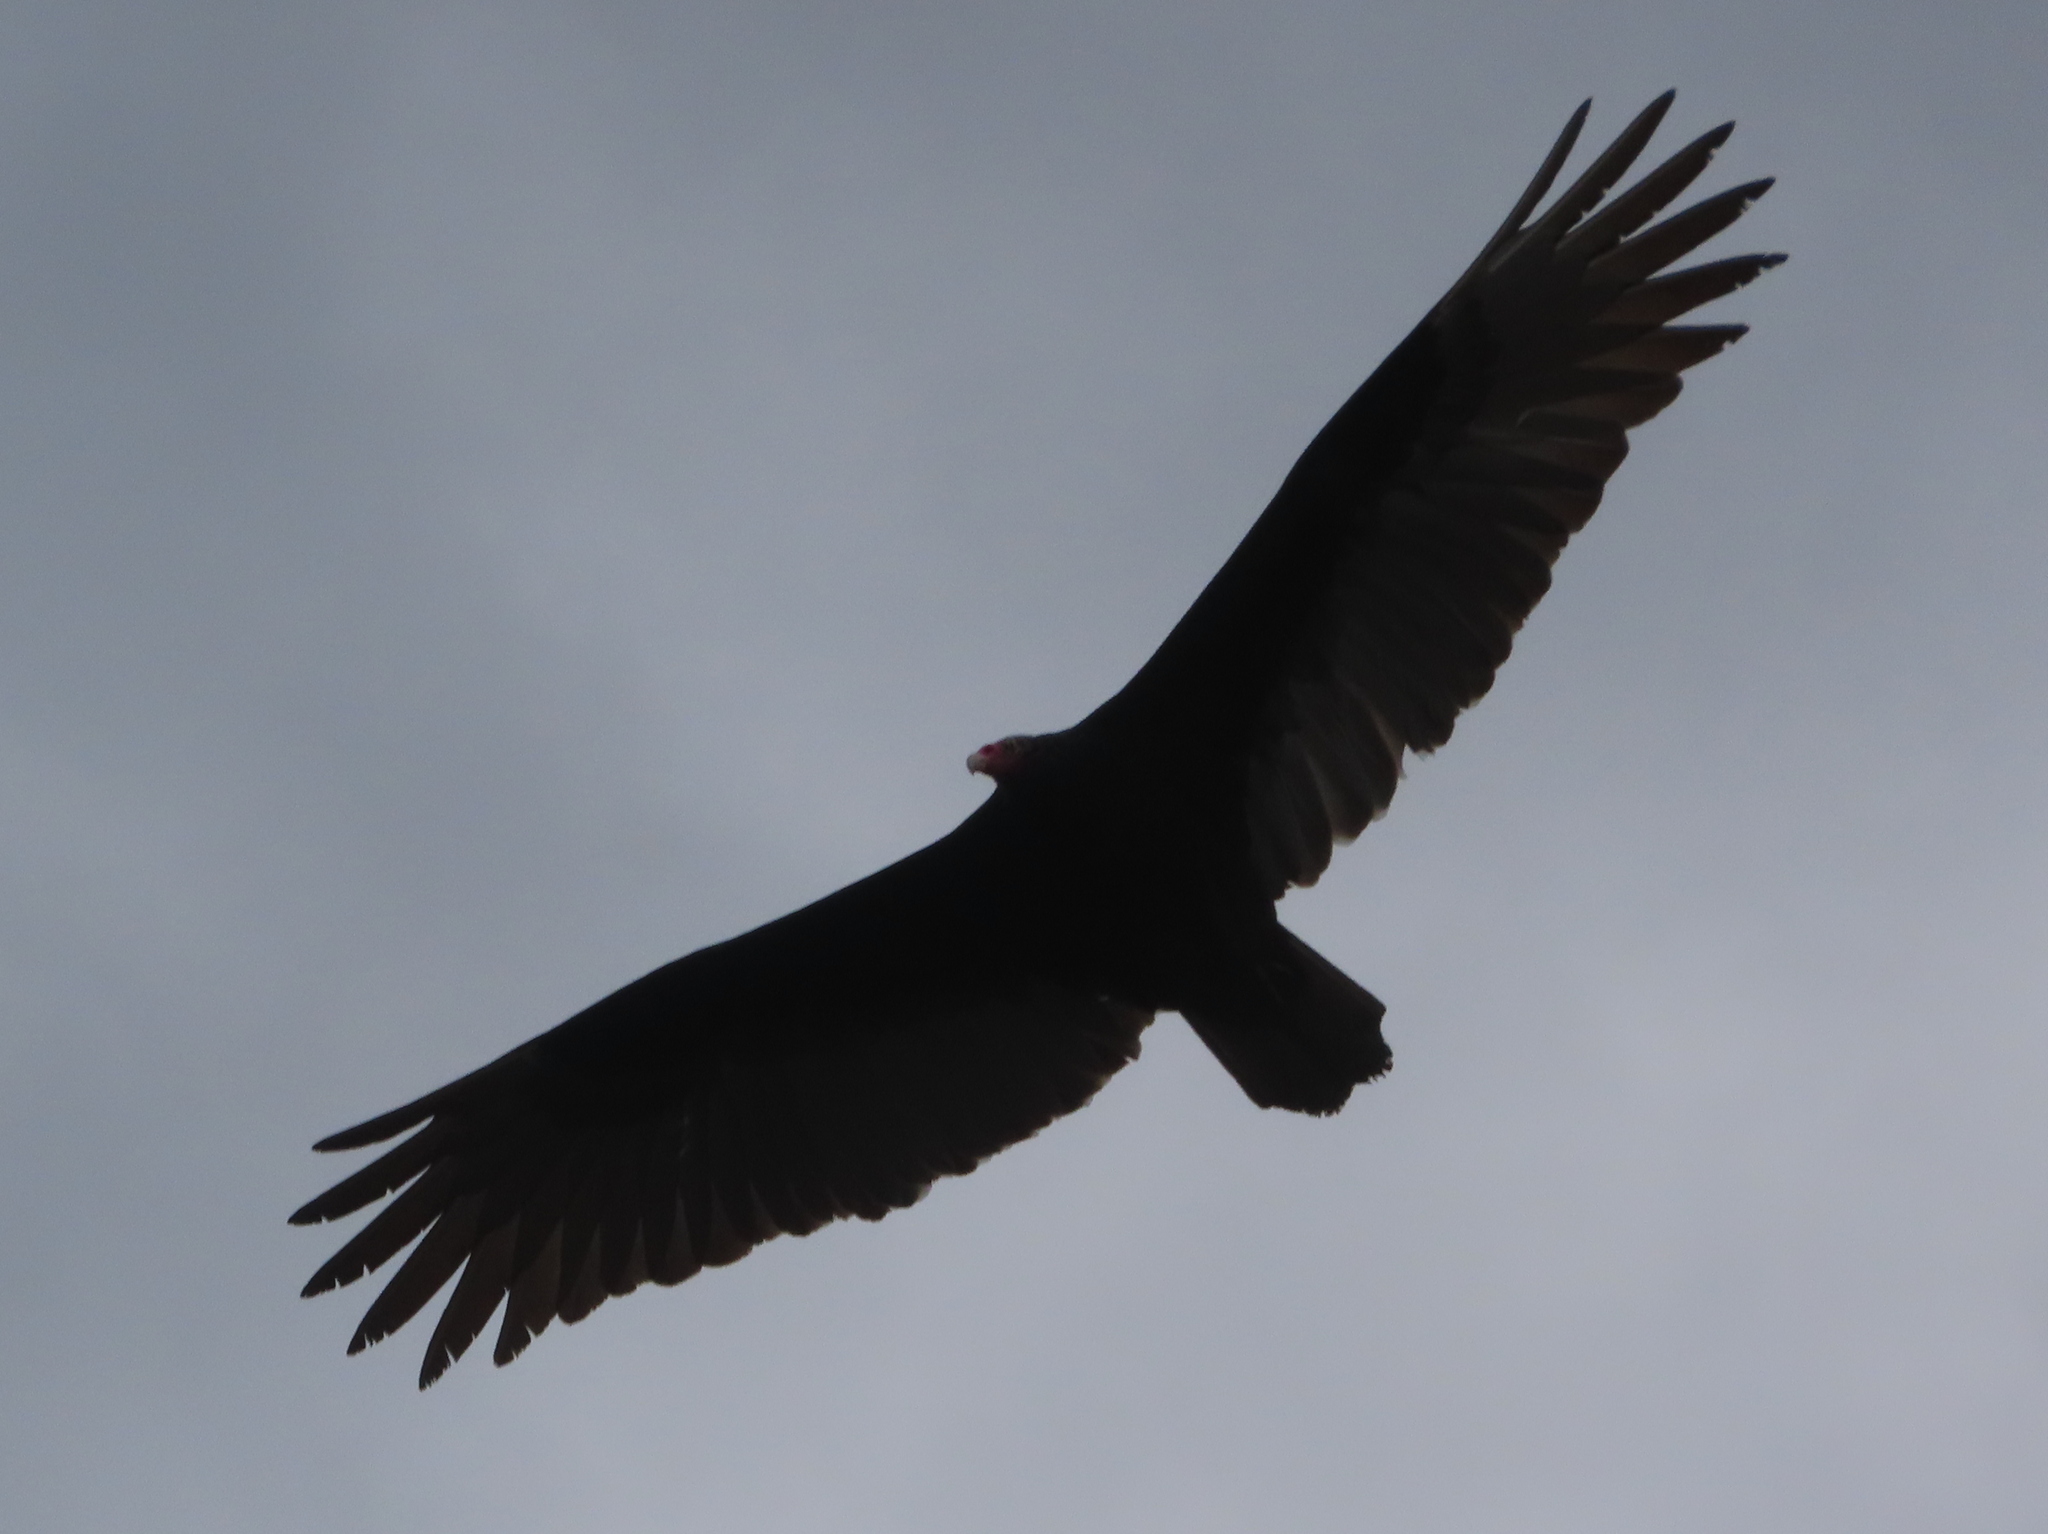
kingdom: Animalia
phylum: Chordata
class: Aves
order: Accipitriformes
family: Cathartidae
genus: Cathartes
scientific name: Cathartes aura
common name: Turkey vulture
